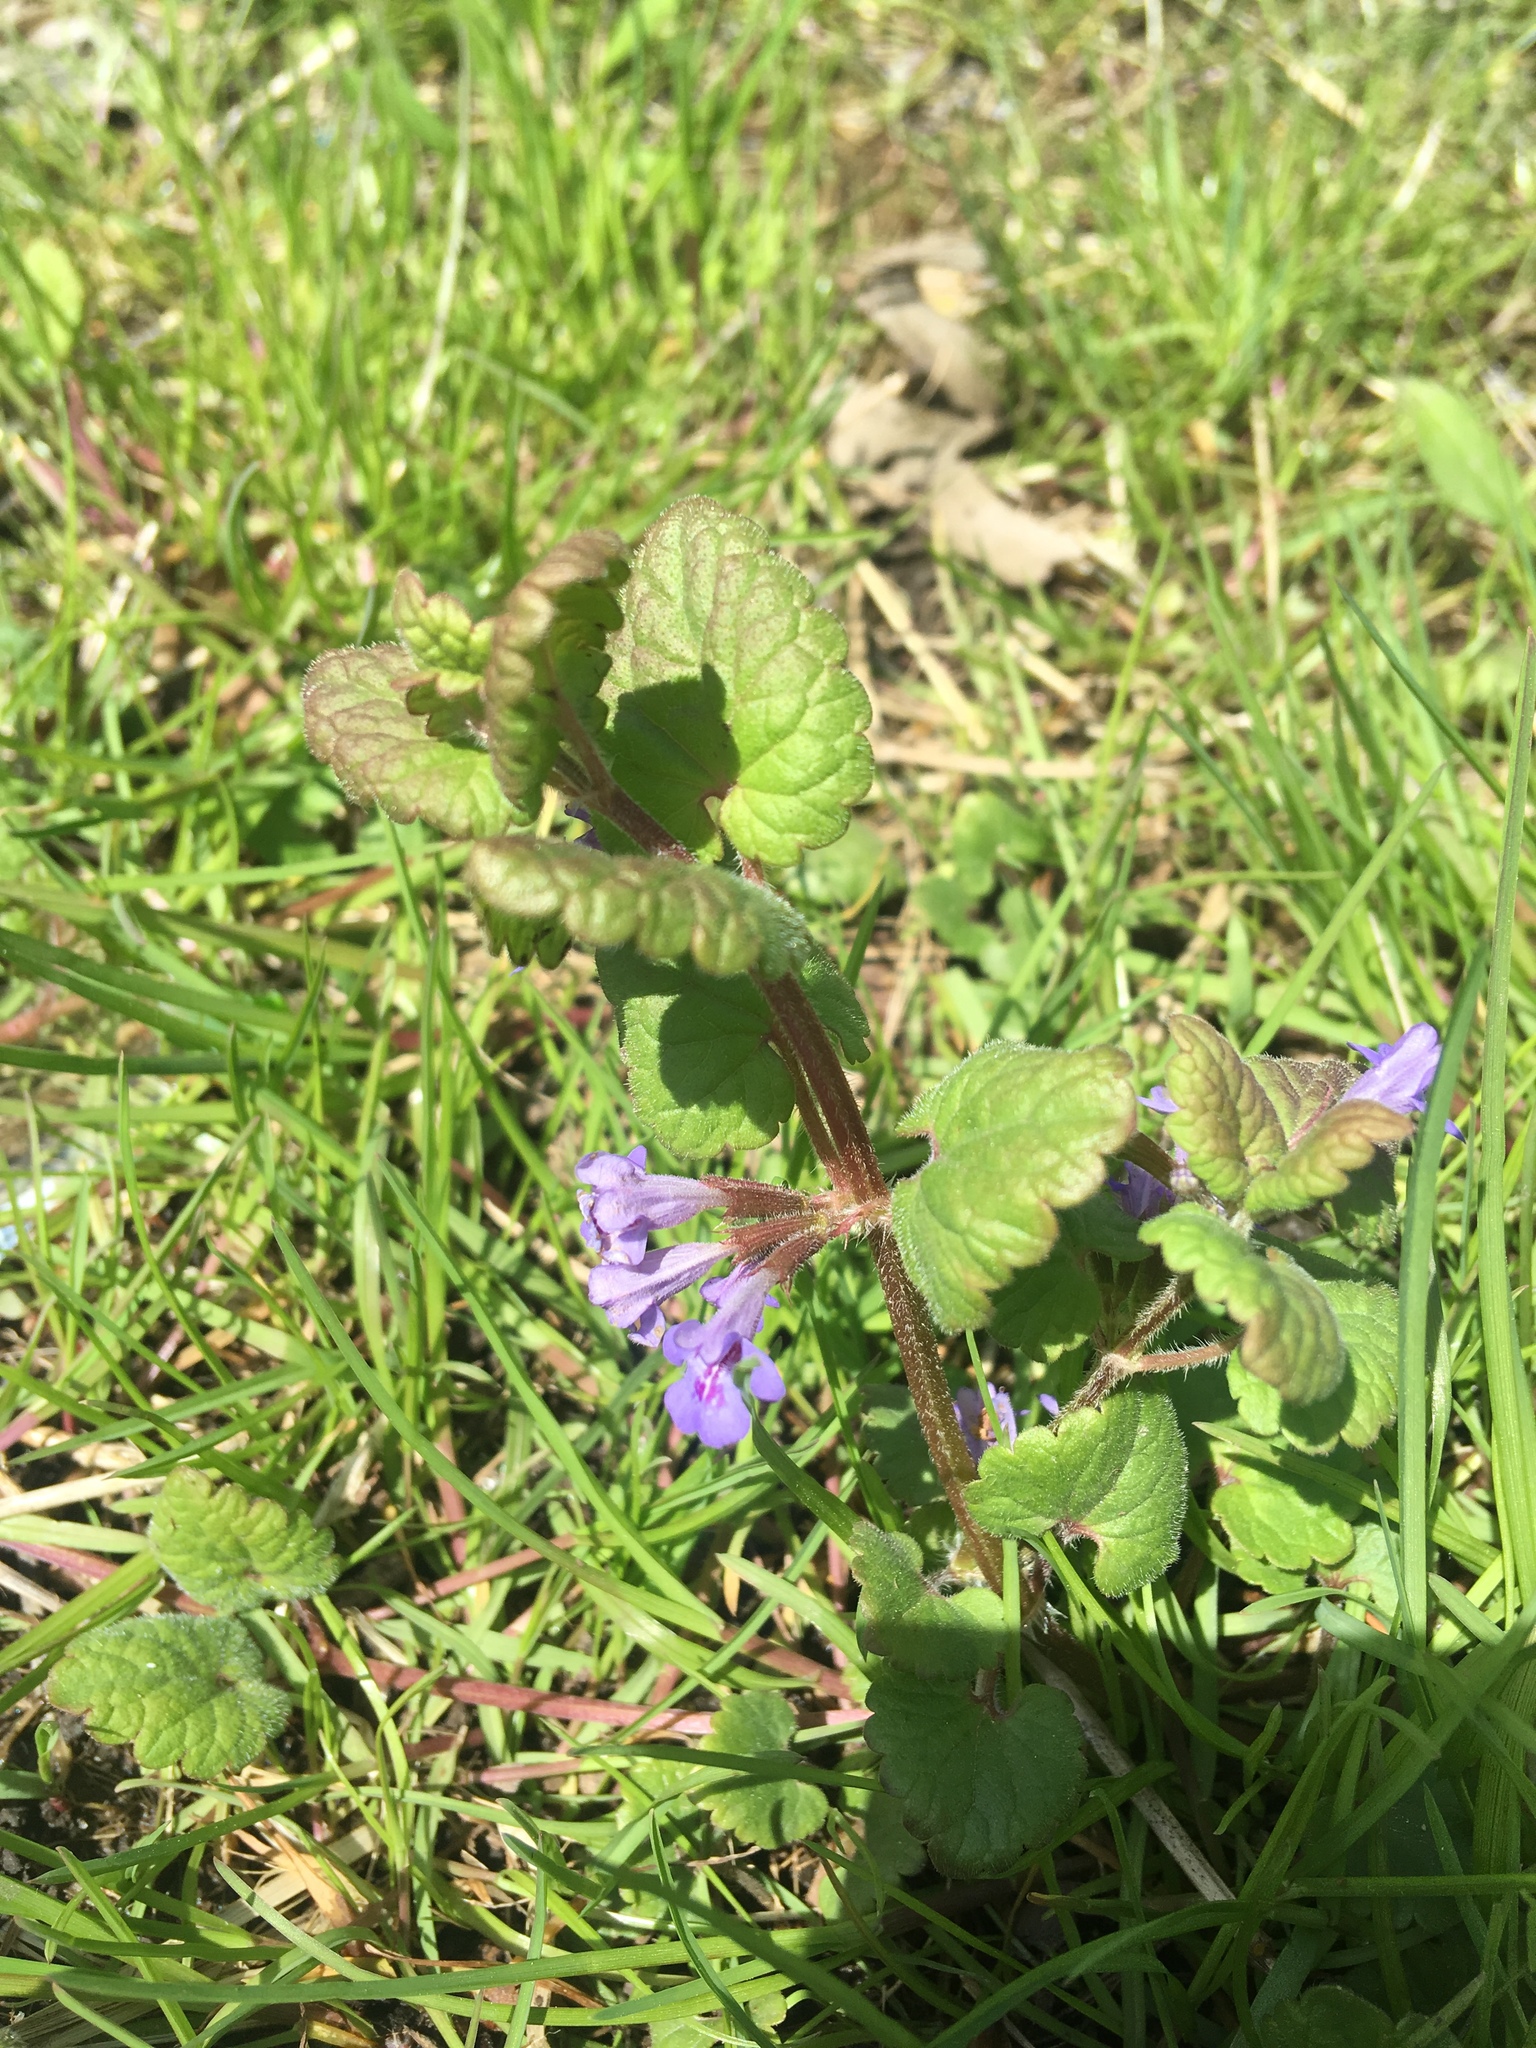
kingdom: Plantae
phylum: Tracheophyta
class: Magnoliopsida
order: Lamiales
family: Lamiaceae
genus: Glechoma
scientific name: Glechoma hederacea
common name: Ground ivy
